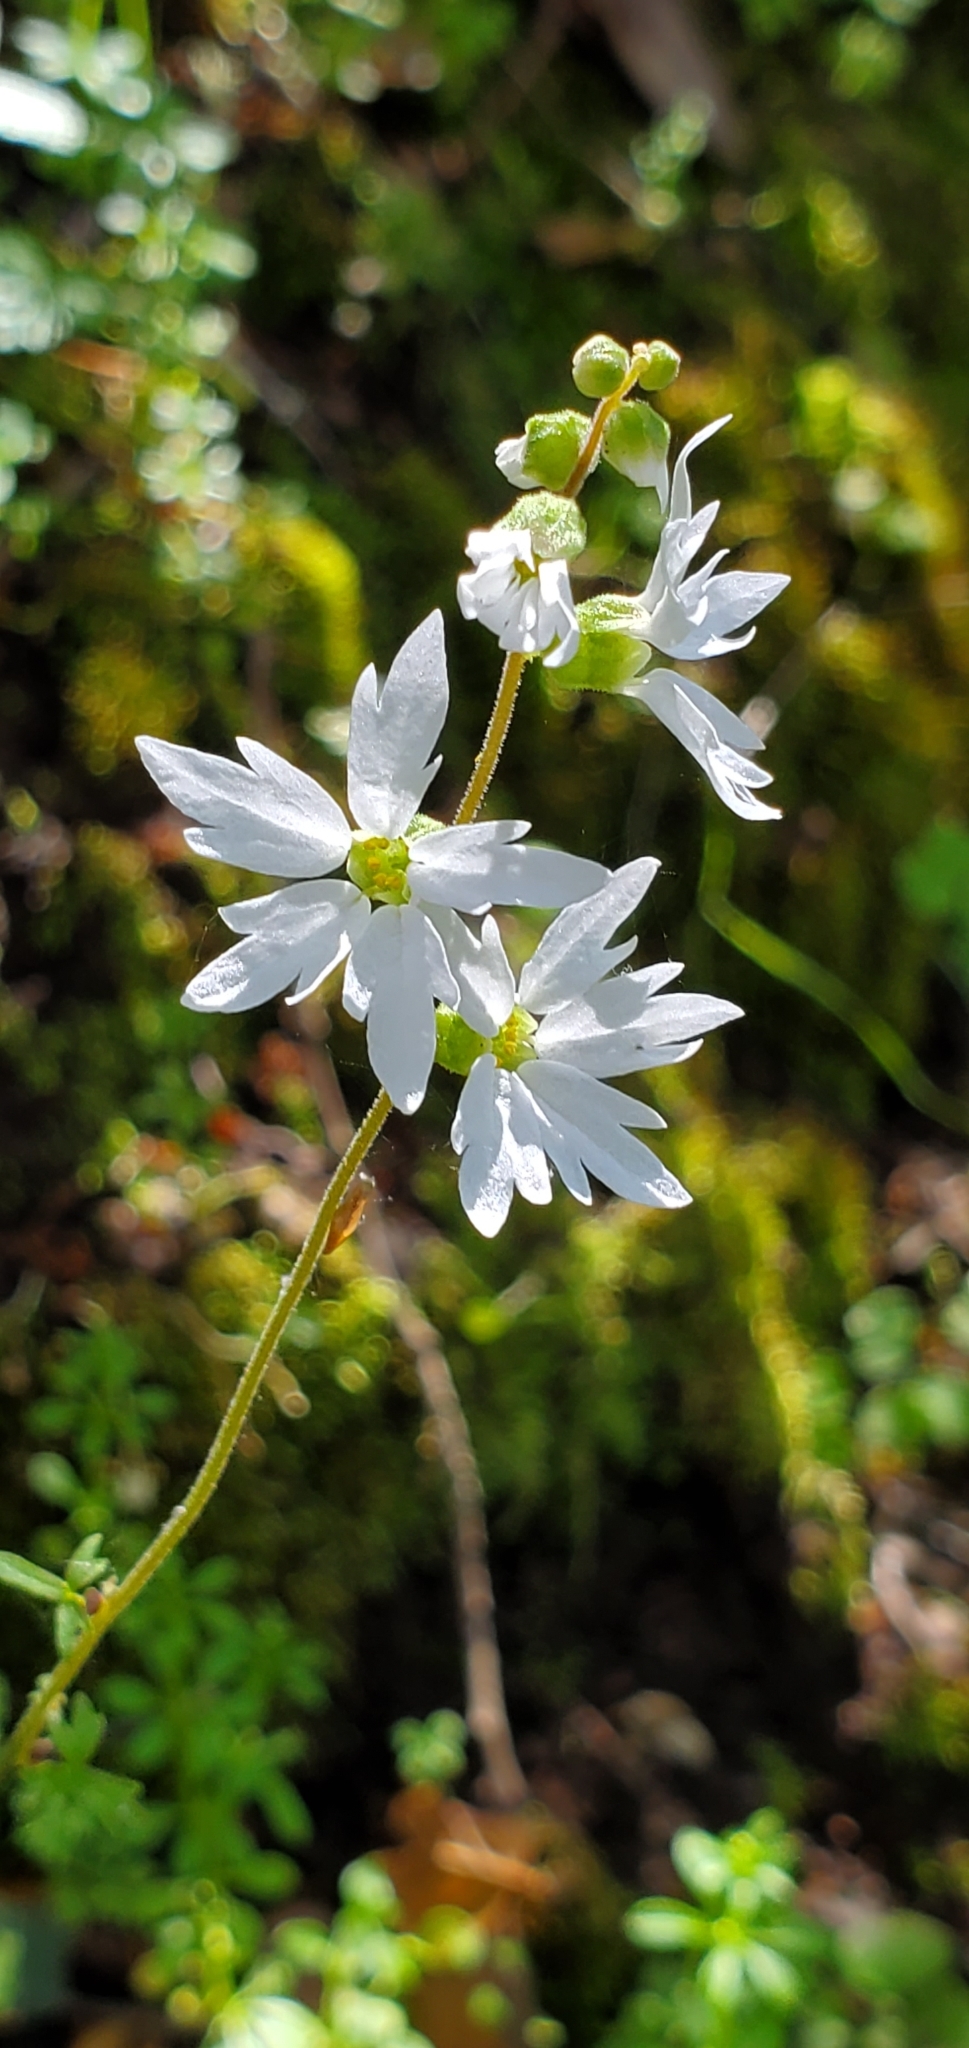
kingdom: Plantae
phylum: Tracheophyta
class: Magnoliopsida
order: Saxifragales
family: Saxifragaceae
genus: Lithophragma
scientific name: Lithophragma heterophyllum
